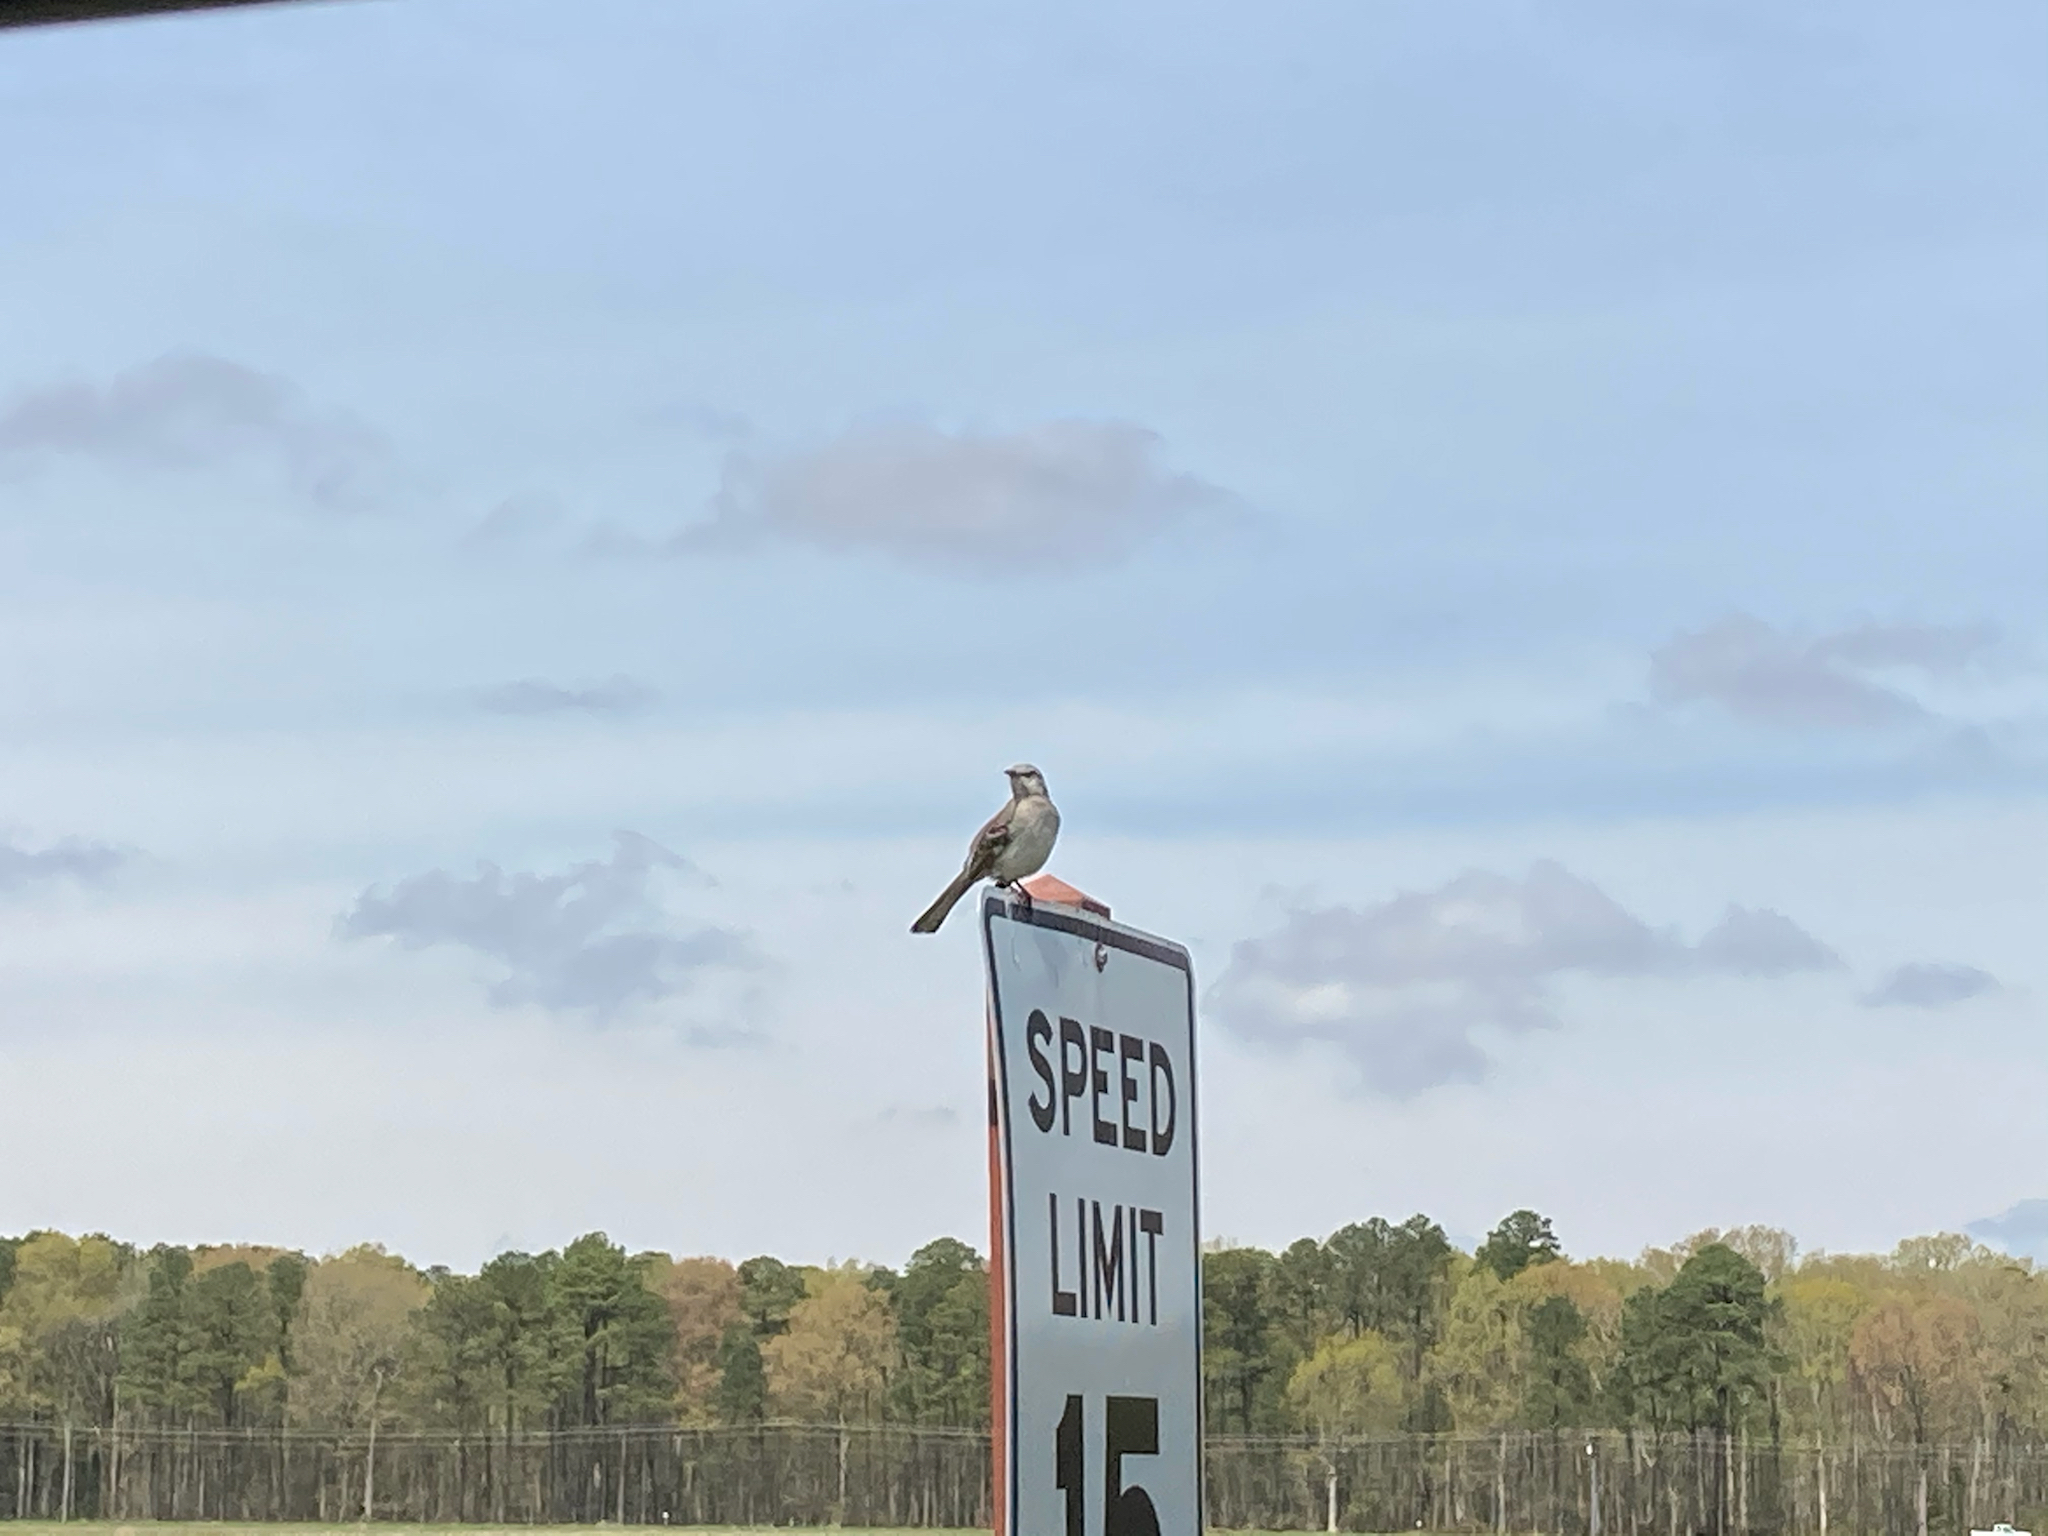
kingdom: Animalia
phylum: Chordata
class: Aves
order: Passeriformes
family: Mimidae
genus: Mimus
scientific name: Mimus polyglottos
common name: Northern mockingbird
